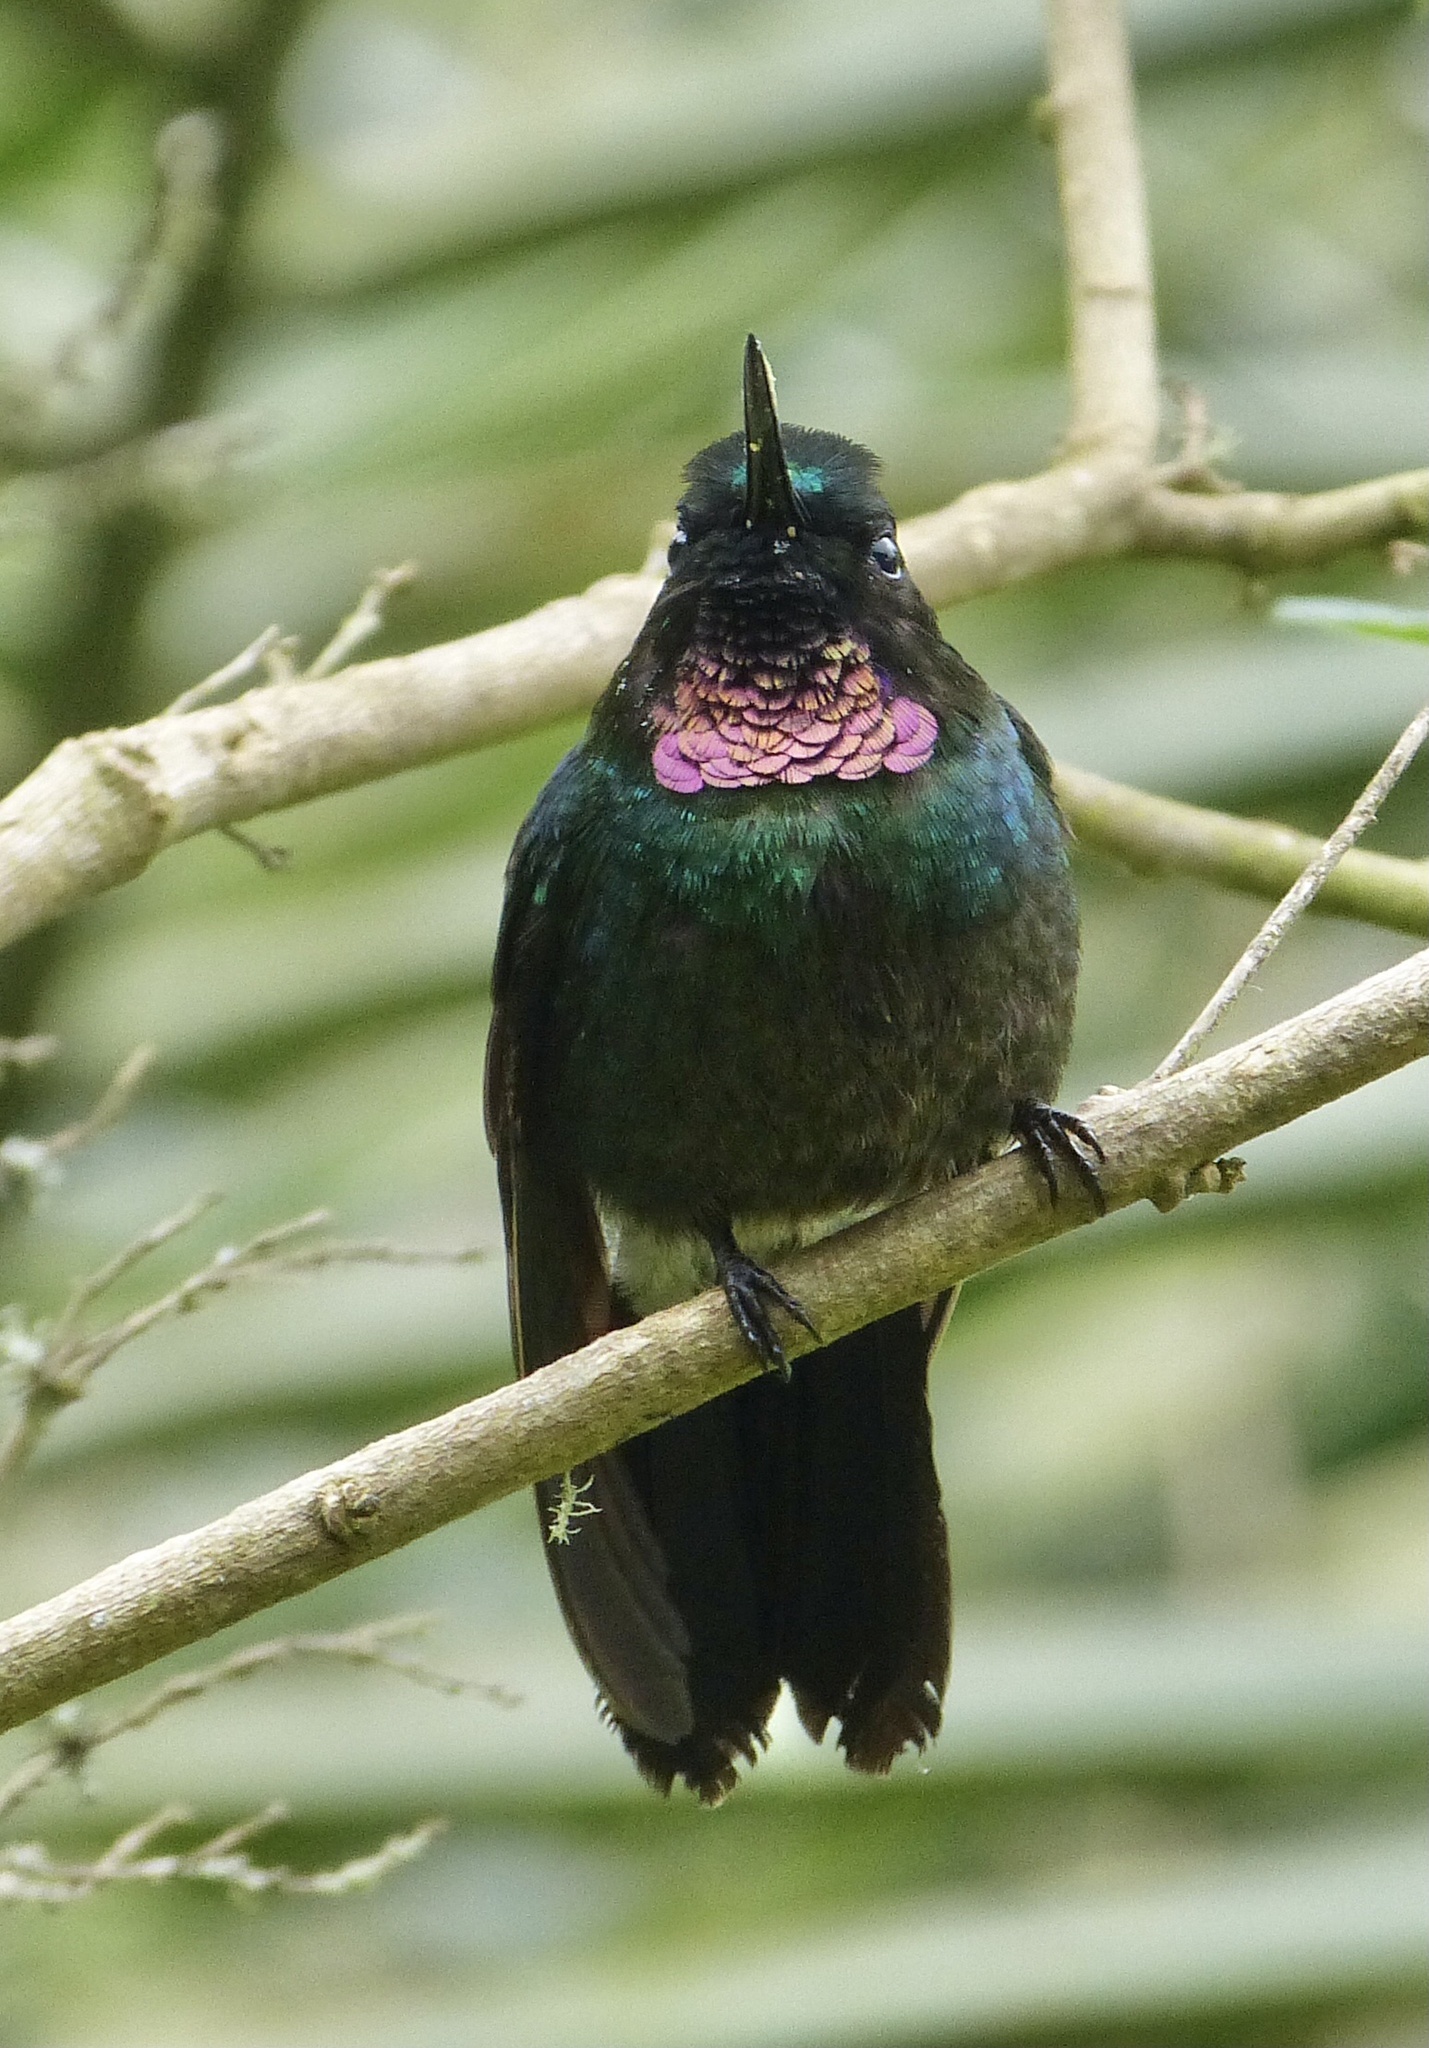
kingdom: Animalia
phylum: Chordata
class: Aves
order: Apodiformes
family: Trochilidae
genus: Heliangelus
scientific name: Heliangelus exortis
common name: Tourmaline sunangel
